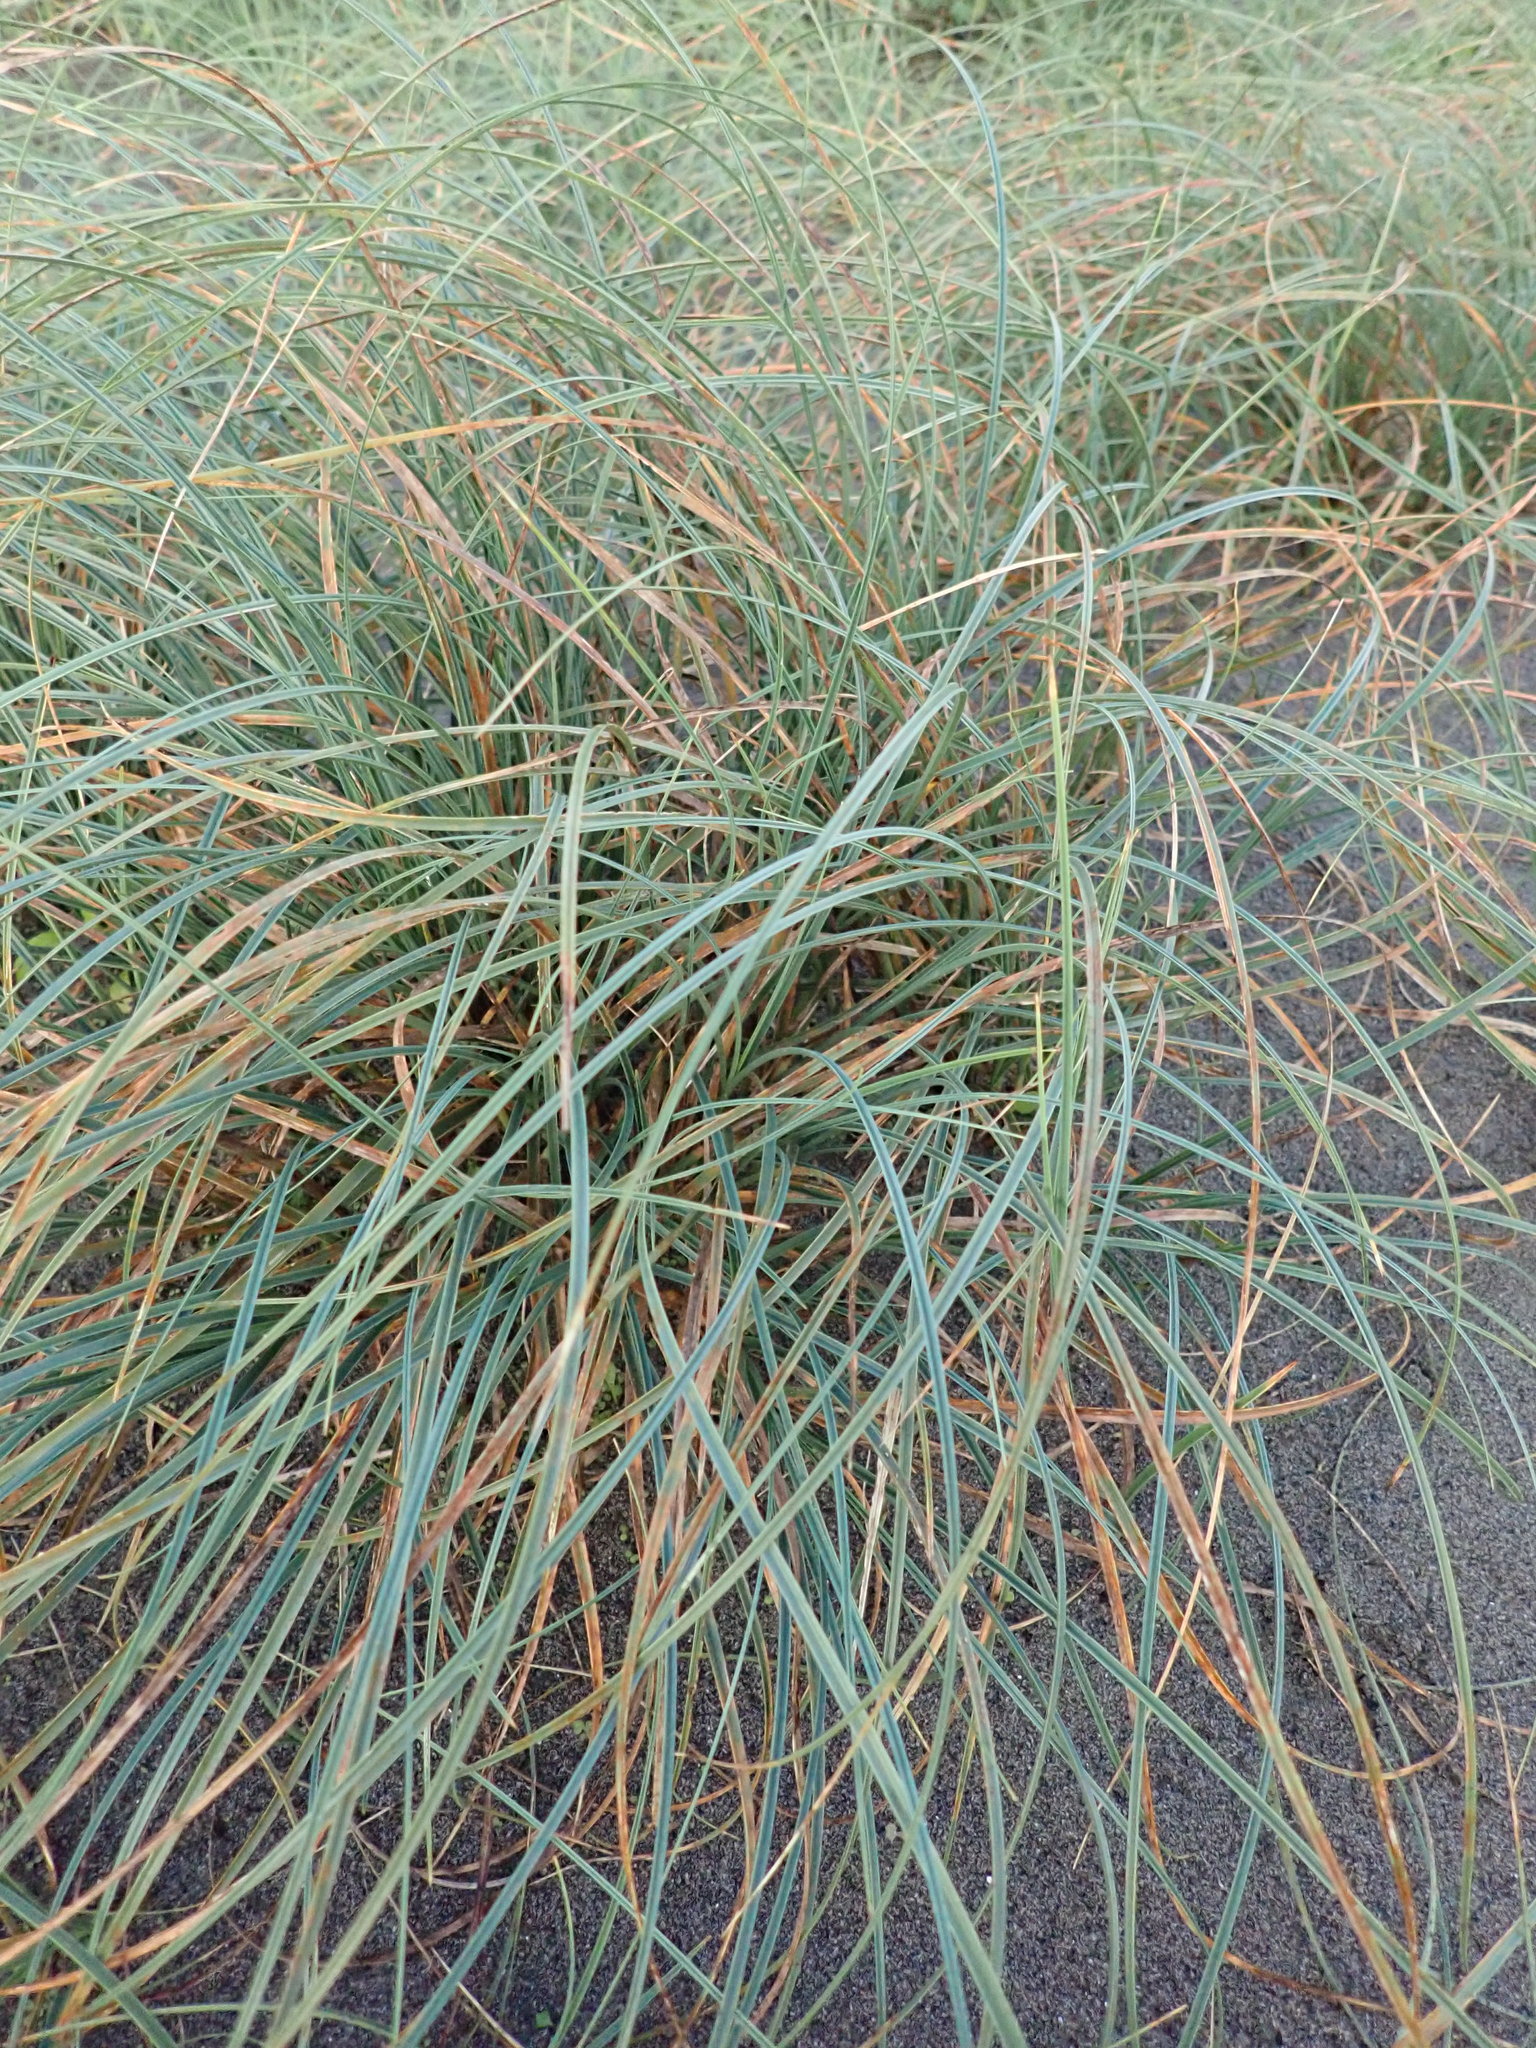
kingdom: Plantae
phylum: Tracheophyta
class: Liliopsida
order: Poales
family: Cyperaceae
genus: Carex
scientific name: Carex pumila
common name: Dwarf sedge
